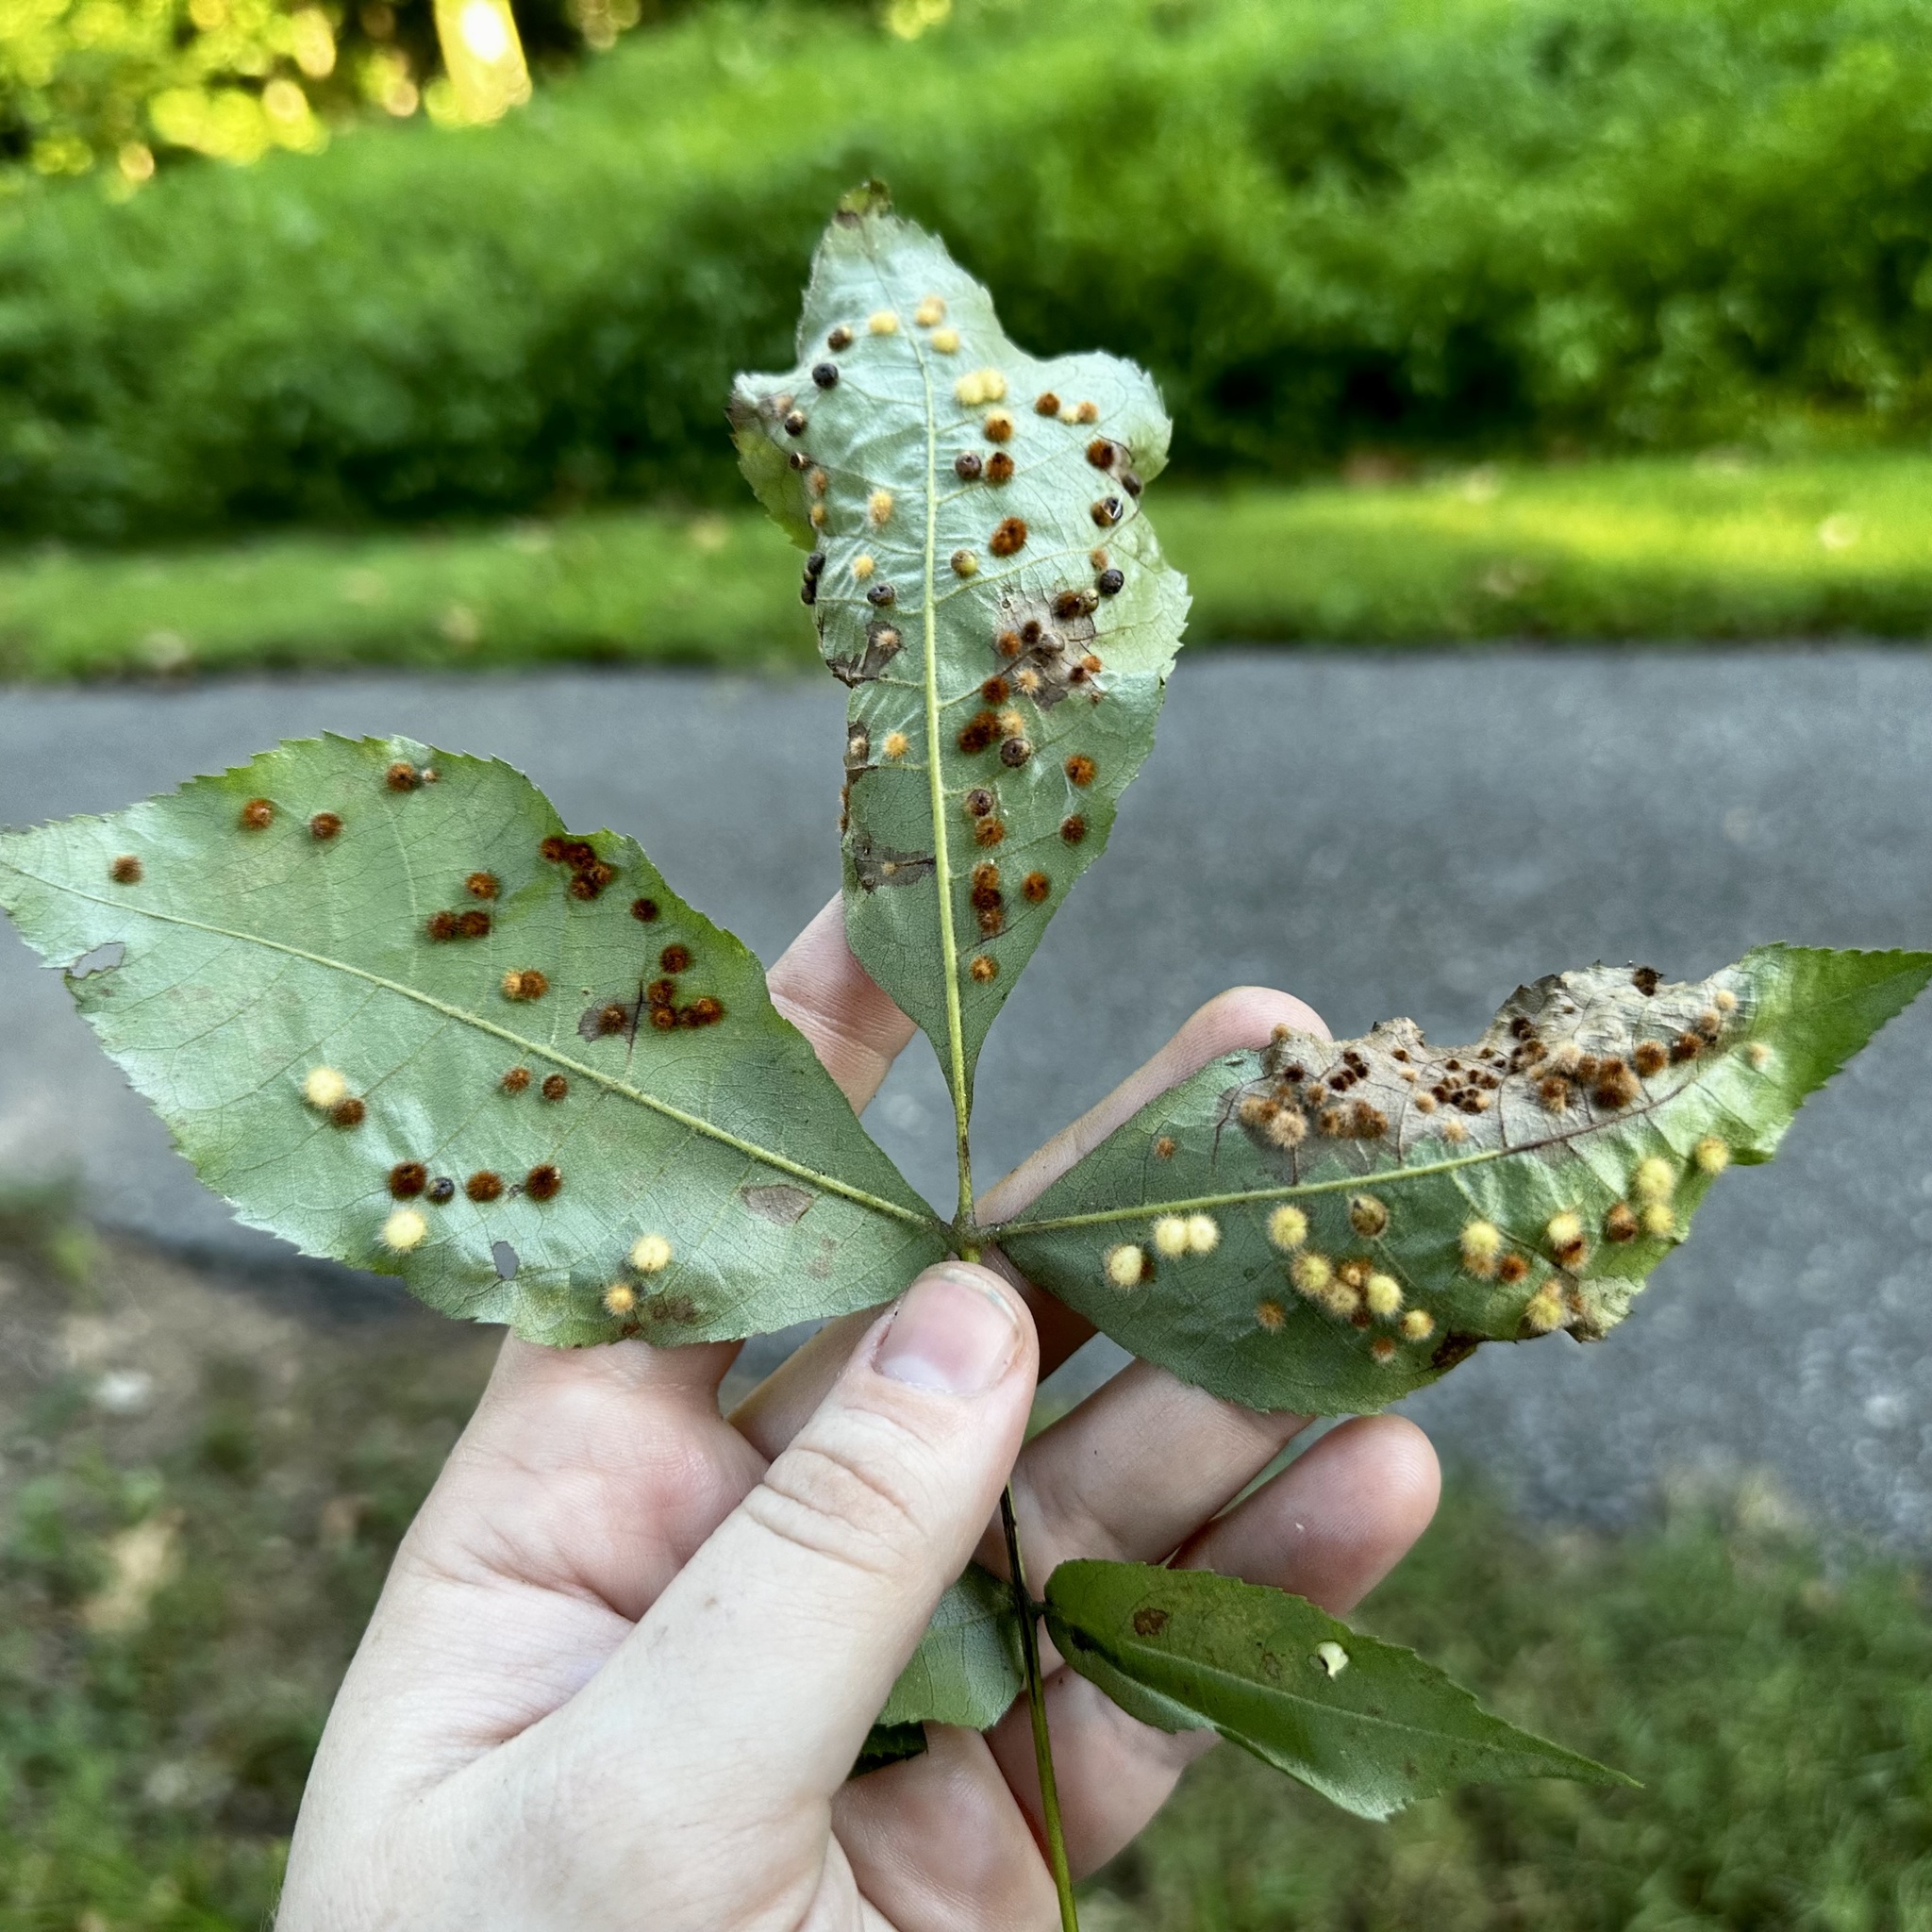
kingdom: Animalia
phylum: Arthropoda
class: Insecta
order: Diptera
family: Cecidomyiidae
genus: Caryomyia
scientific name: Caryomyia purpurea
